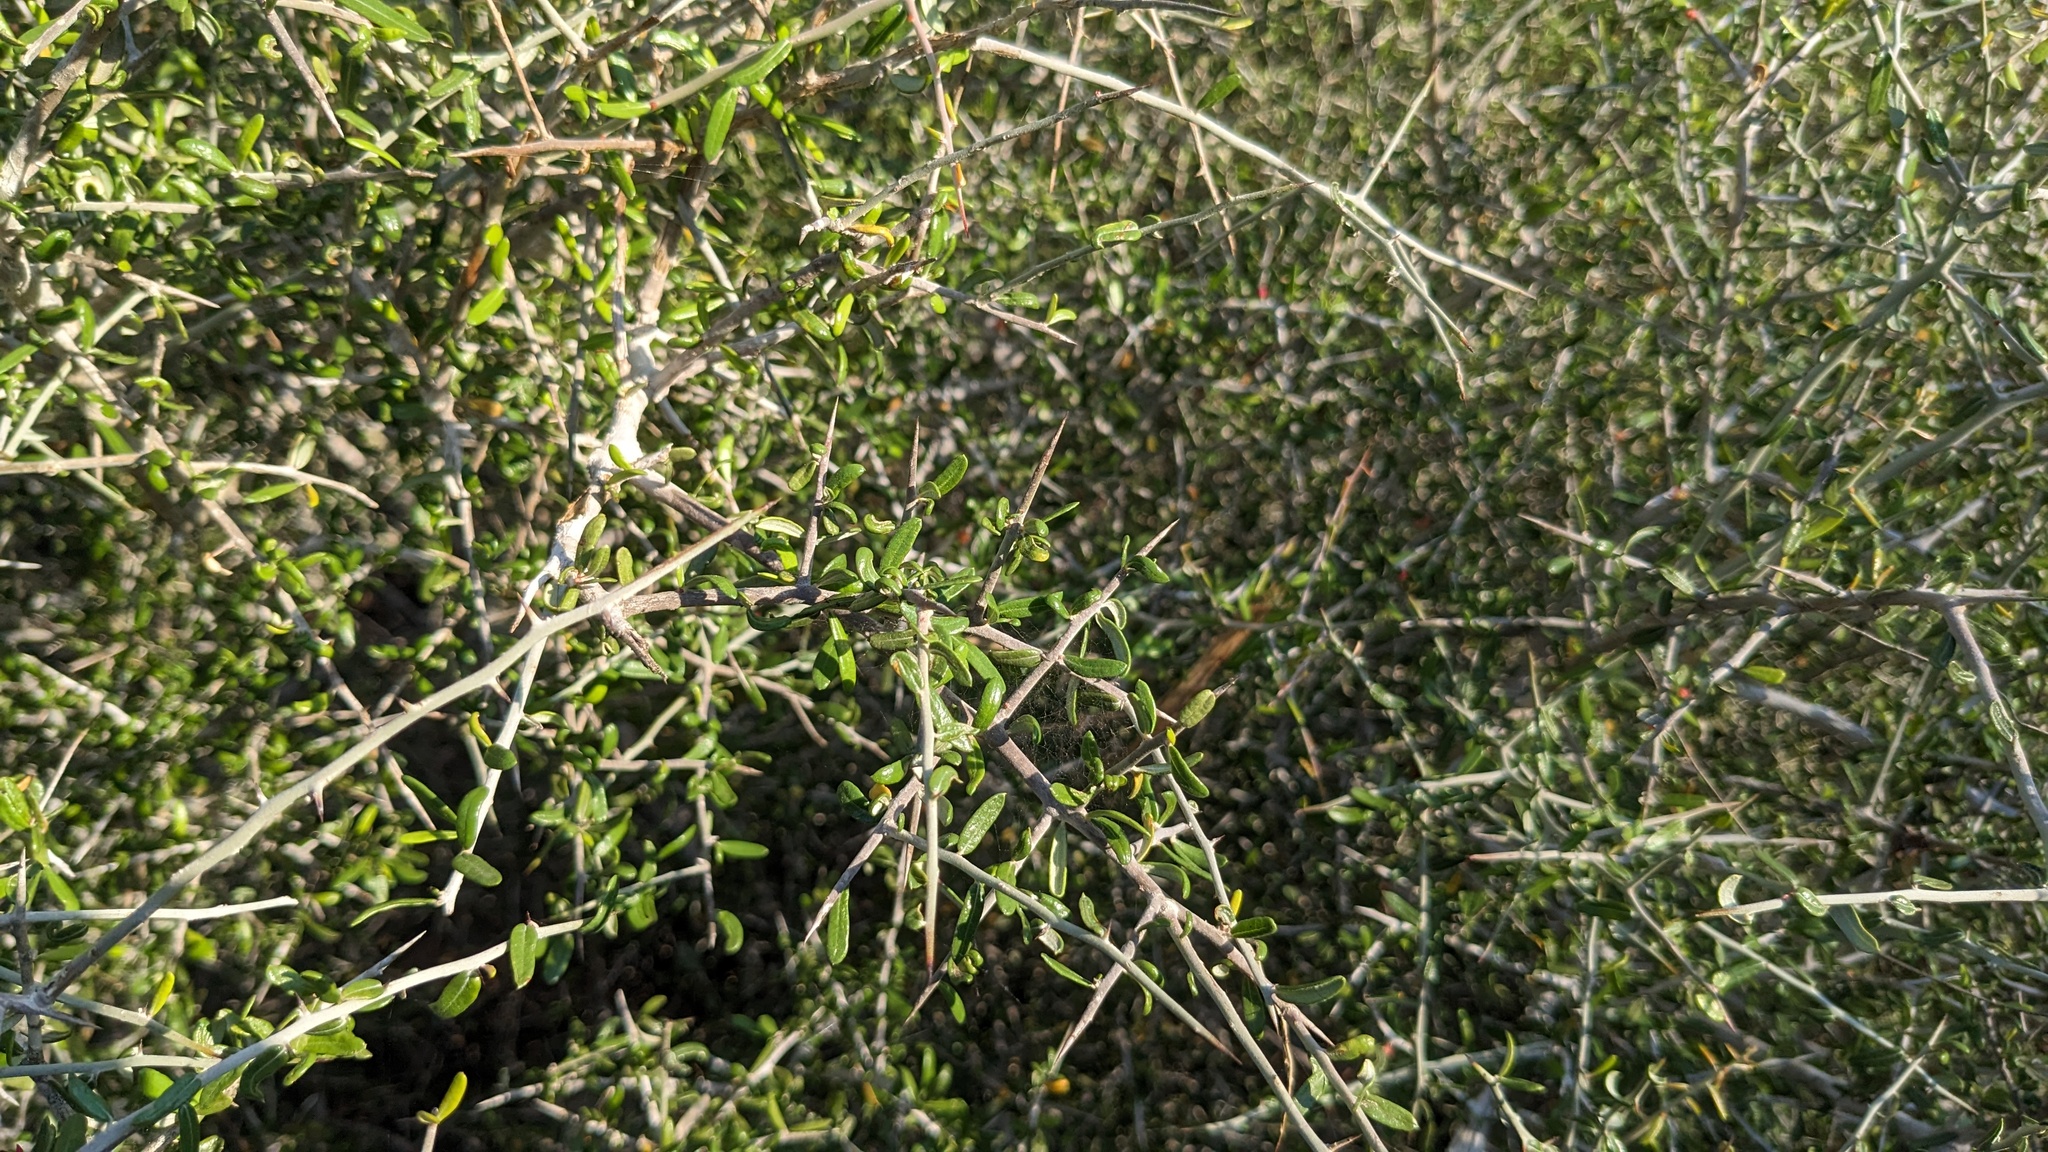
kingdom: Plantae
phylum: Tracheophyta
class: Magnoliopsida
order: Sapindales
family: Simaroubaceae
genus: Castela
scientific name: Castela erecta
